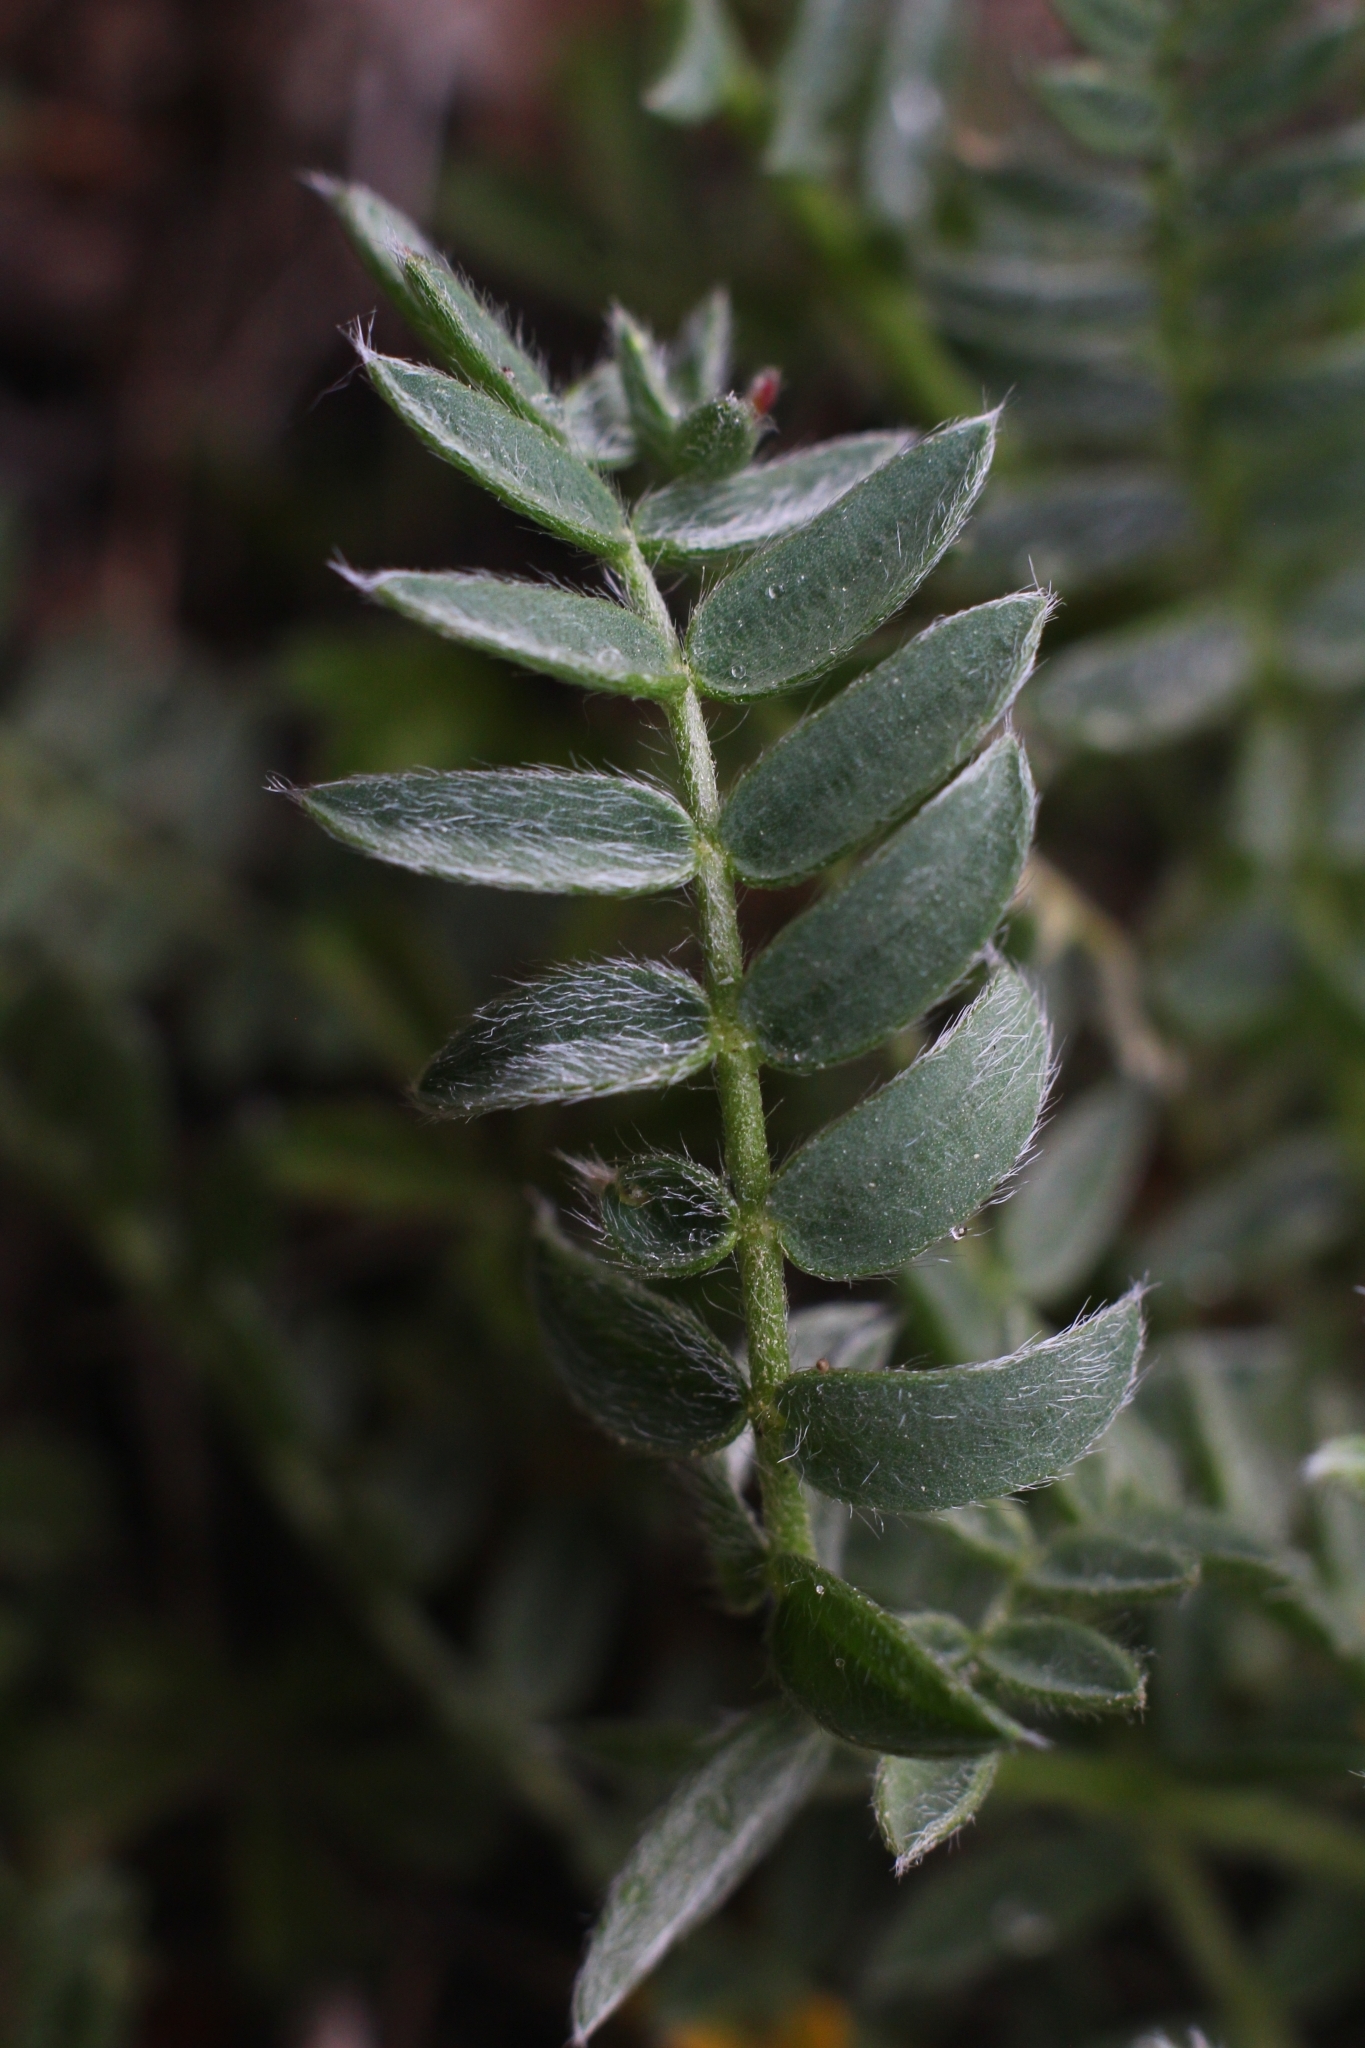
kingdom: Plantae
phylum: Tracheophyta
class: Magnoliopsida
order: Fabales
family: Fabaceae
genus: Oxytropis
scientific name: Oxytropis campestris
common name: Field locoweed
